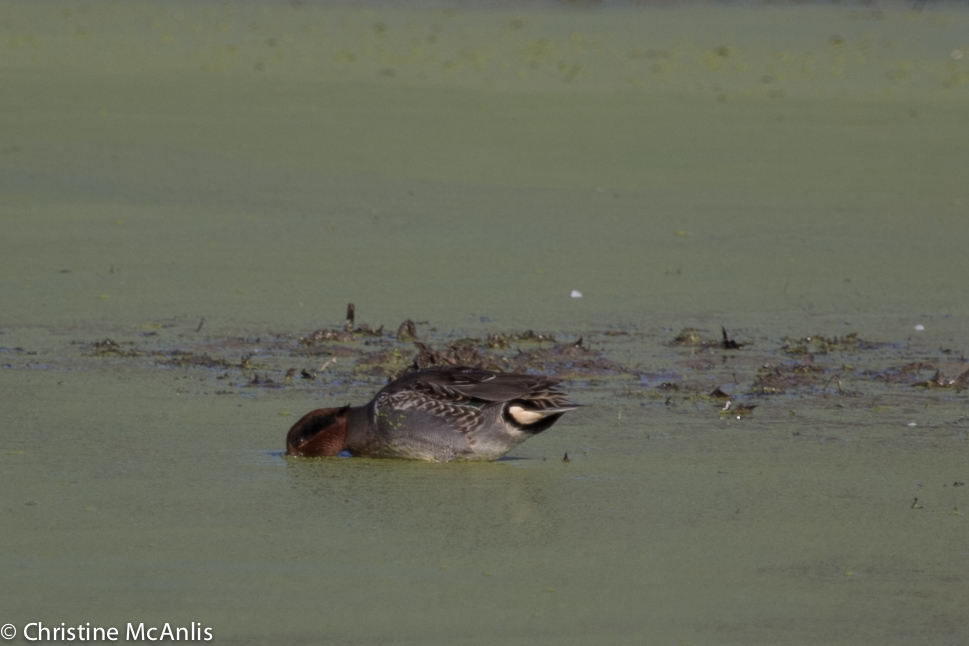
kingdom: Animalia
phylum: Chordata
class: Aves
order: Anseriformes
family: Anatidae
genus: Anas
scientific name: Anas crecca
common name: Eurasian teal
